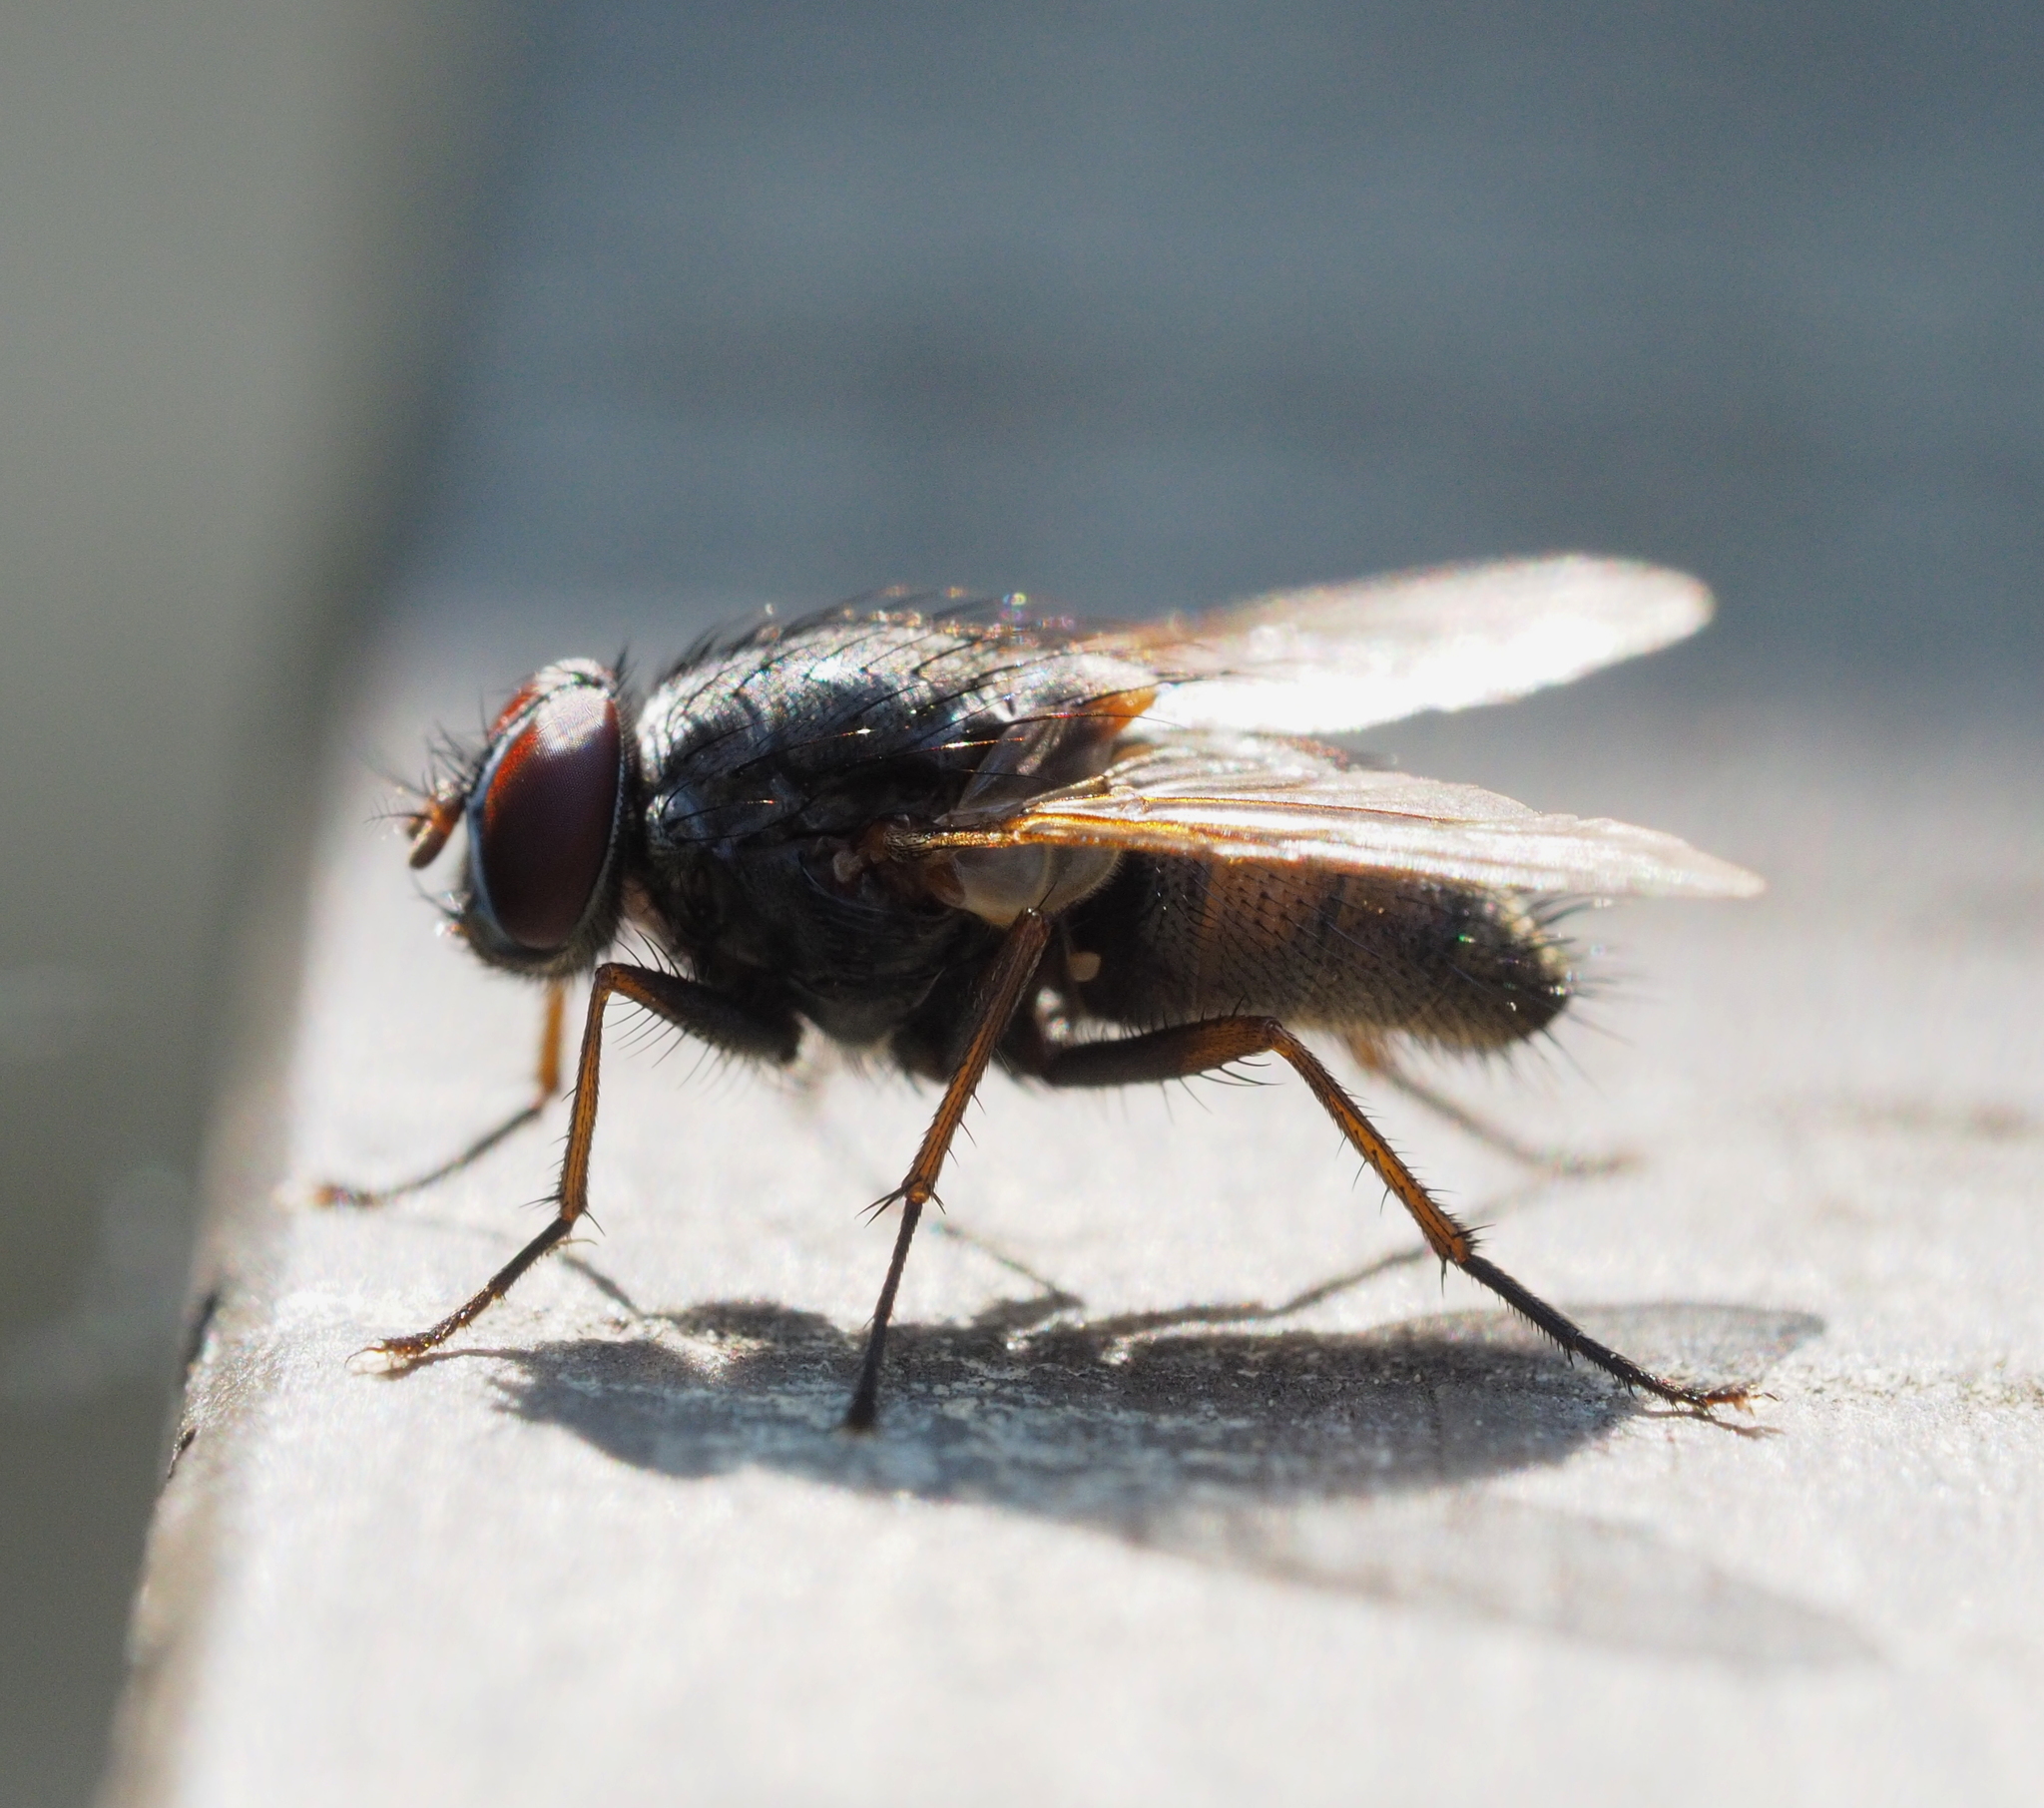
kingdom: Animalia
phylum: Arthropoda
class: Insecta
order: Diptera
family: Muscidae
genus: Muscina
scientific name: Muscina stabulans
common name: False stable fly
